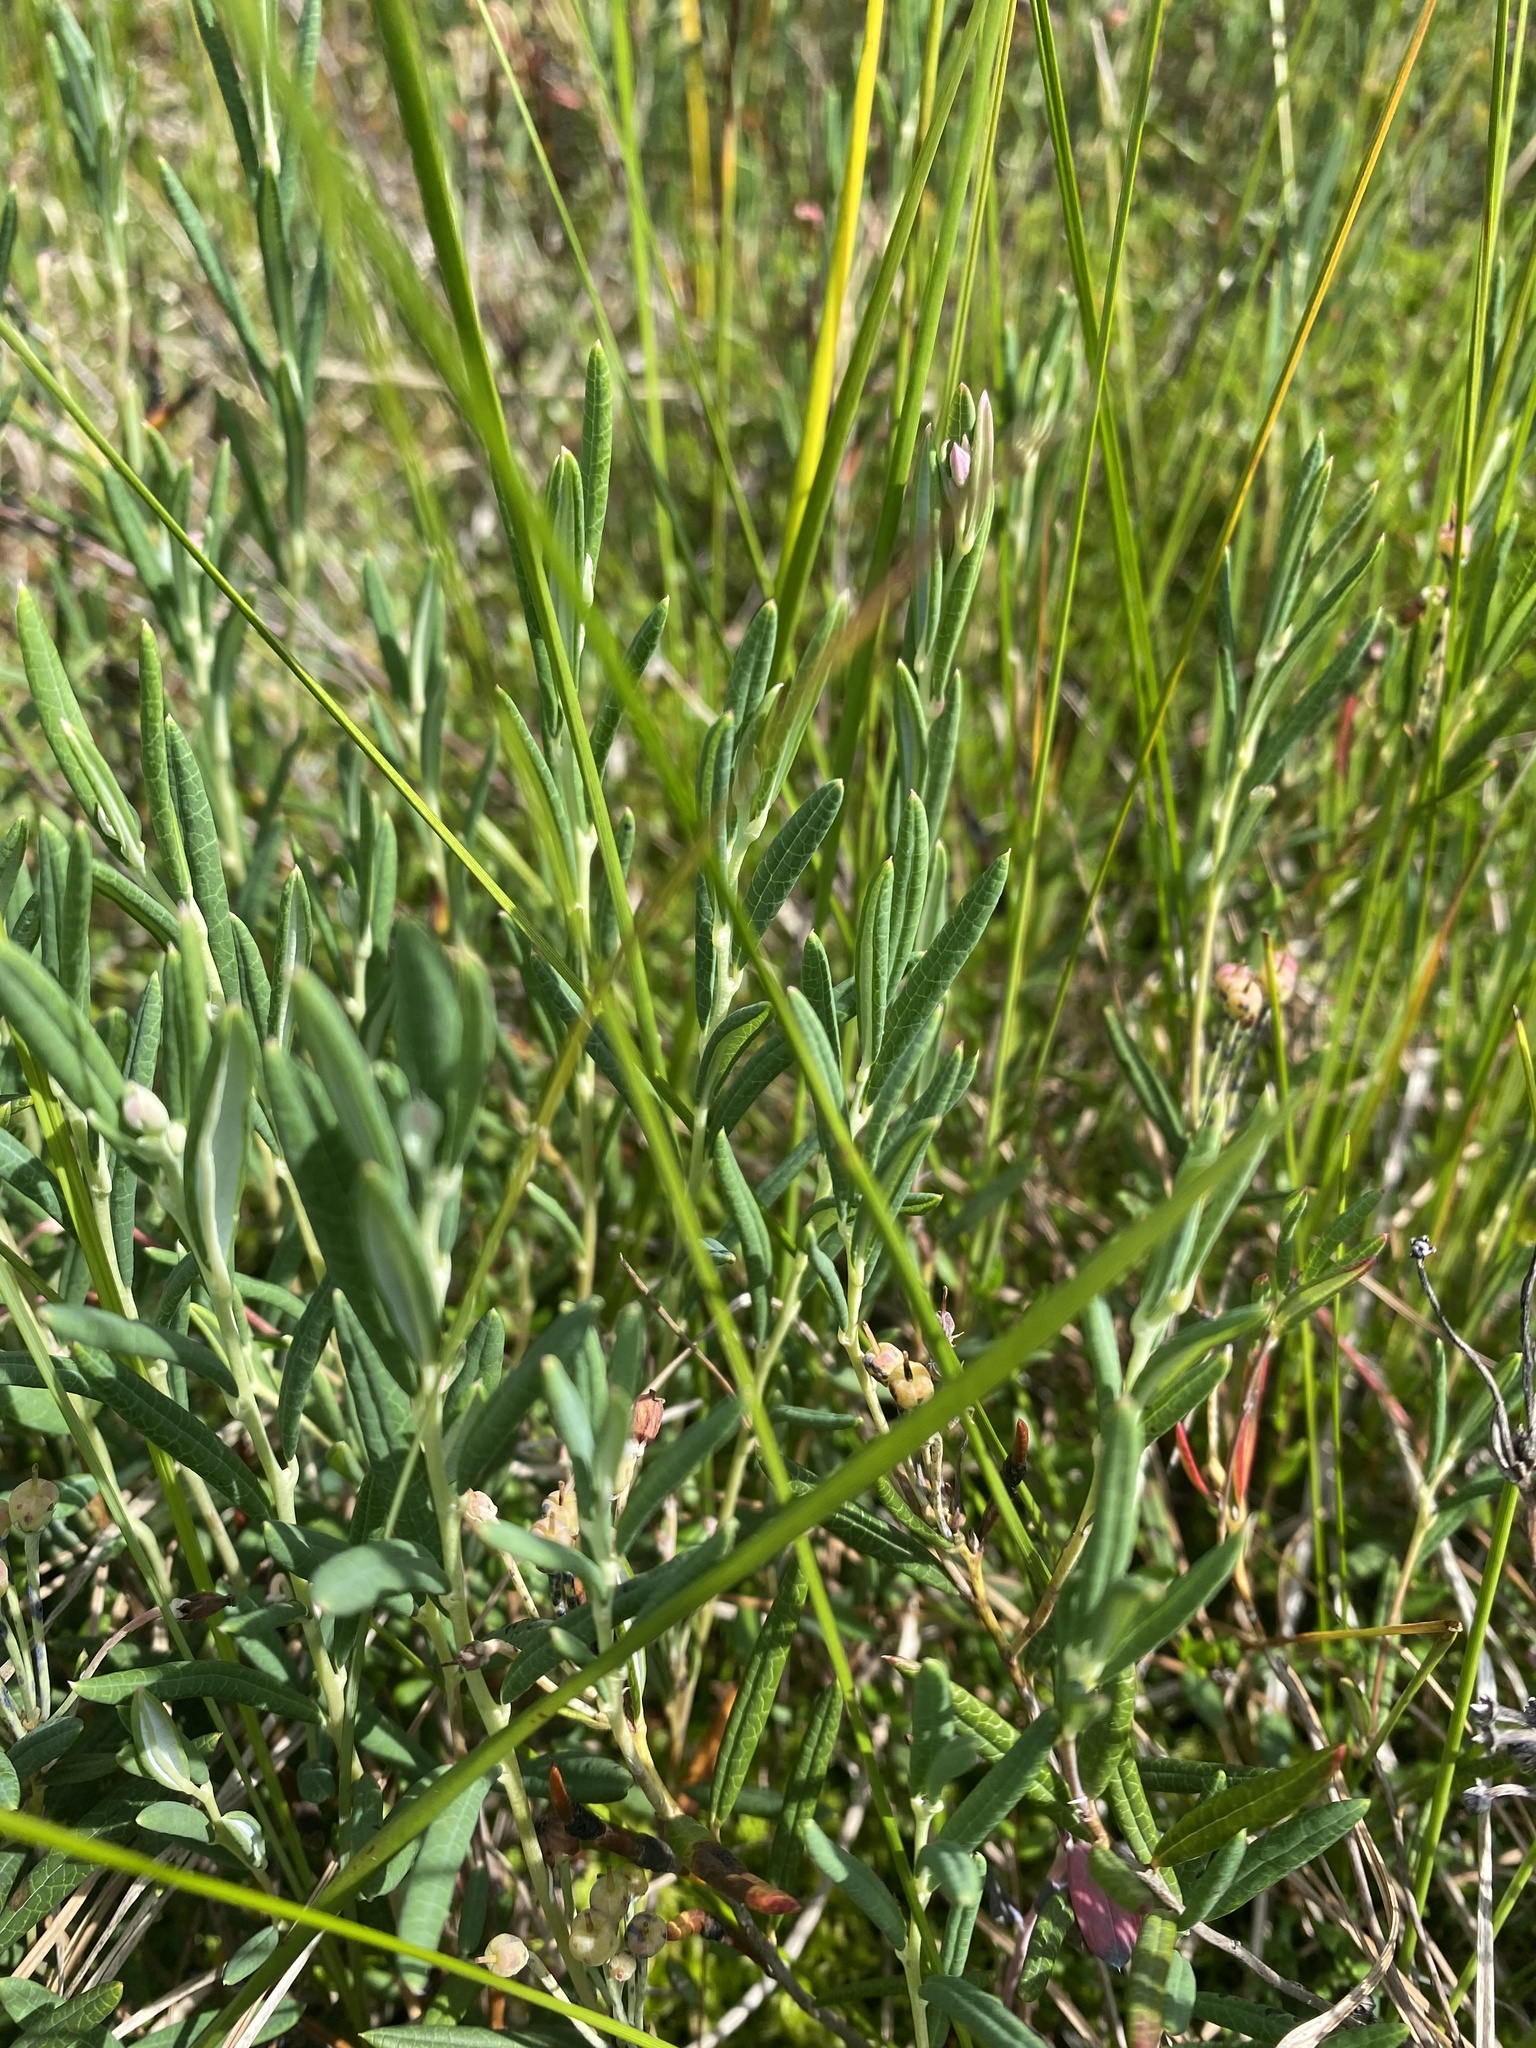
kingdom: Plantae
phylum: Tracheophyta
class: Magnoliopsida
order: Ericales
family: Ericaceae
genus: Andromeda
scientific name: Andromeda polifolia
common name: Bog-rosemary
